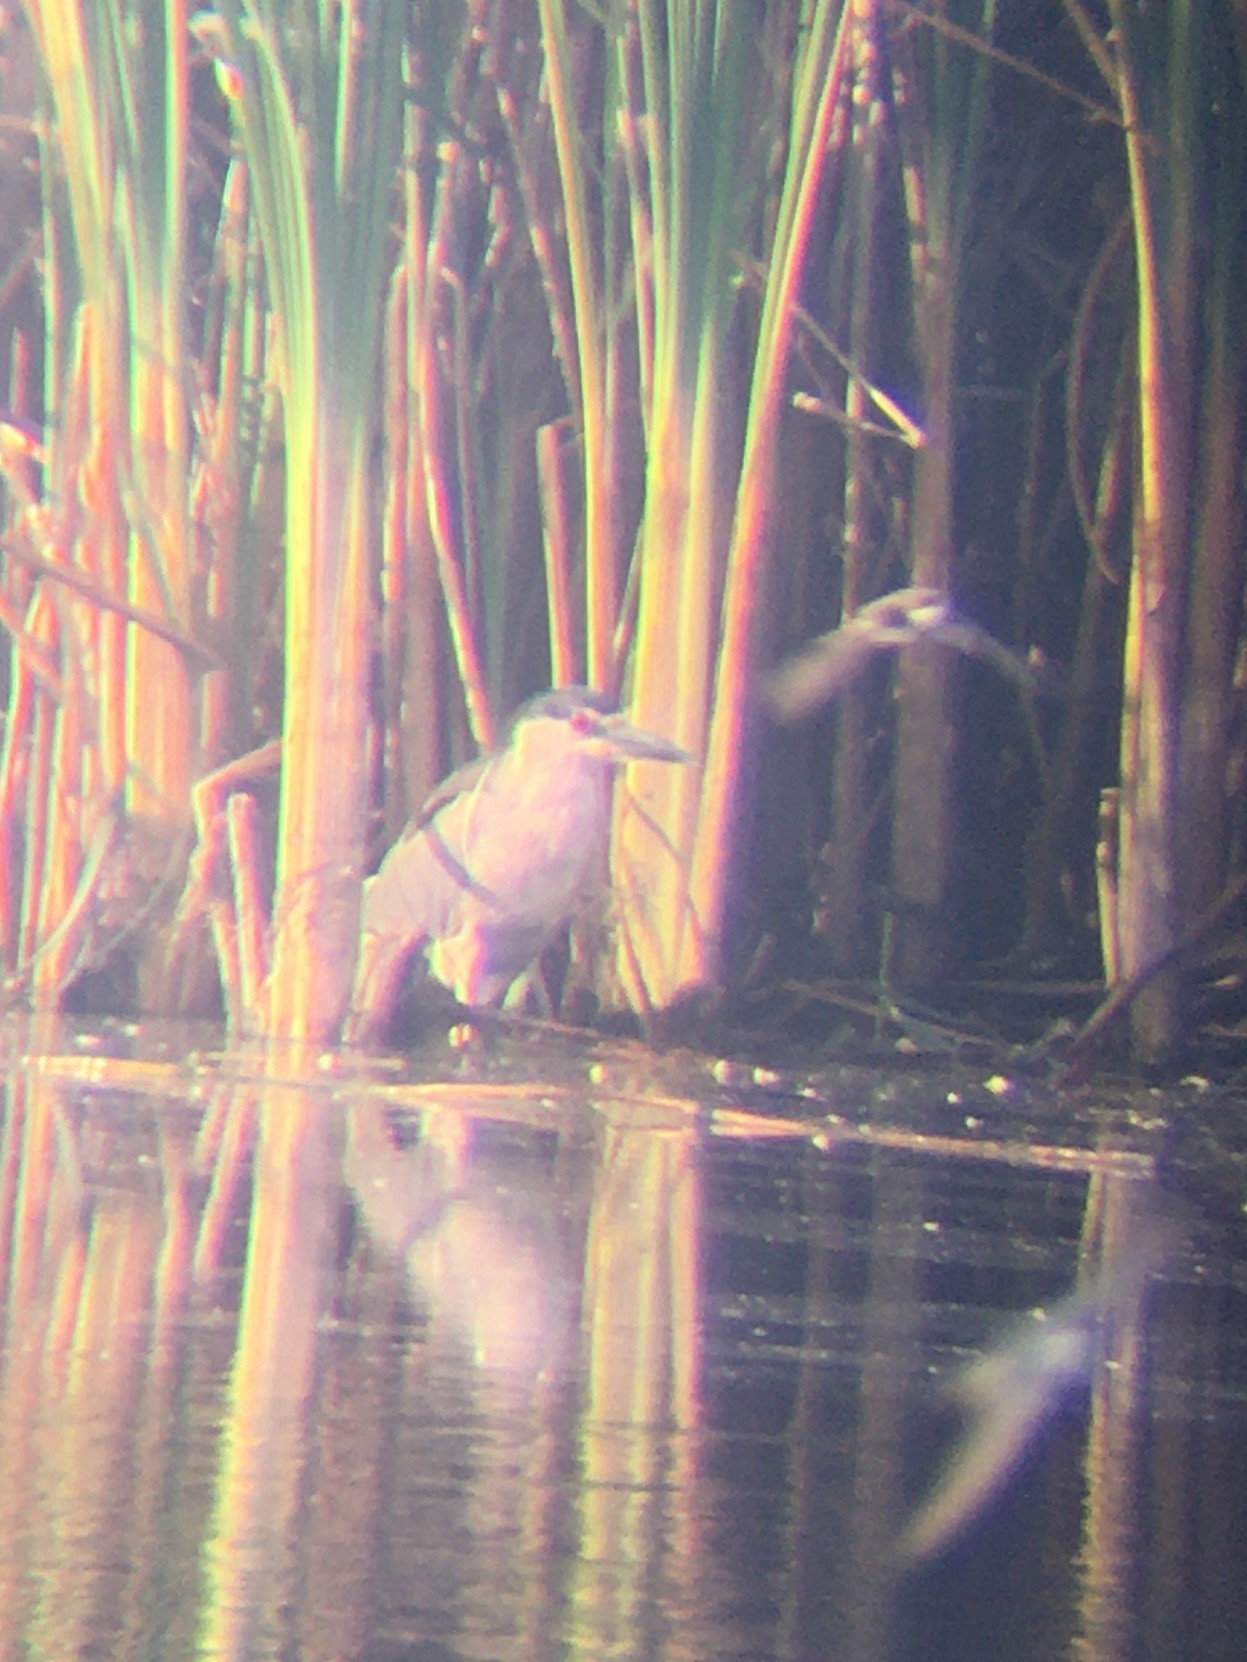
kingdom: Animalia
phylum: Chordata
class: Aves
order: Pelecaniformes
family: Ardeidae
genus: Nycticorax
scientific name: Nycticorax nycticorax
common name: Black-crowned night heron
